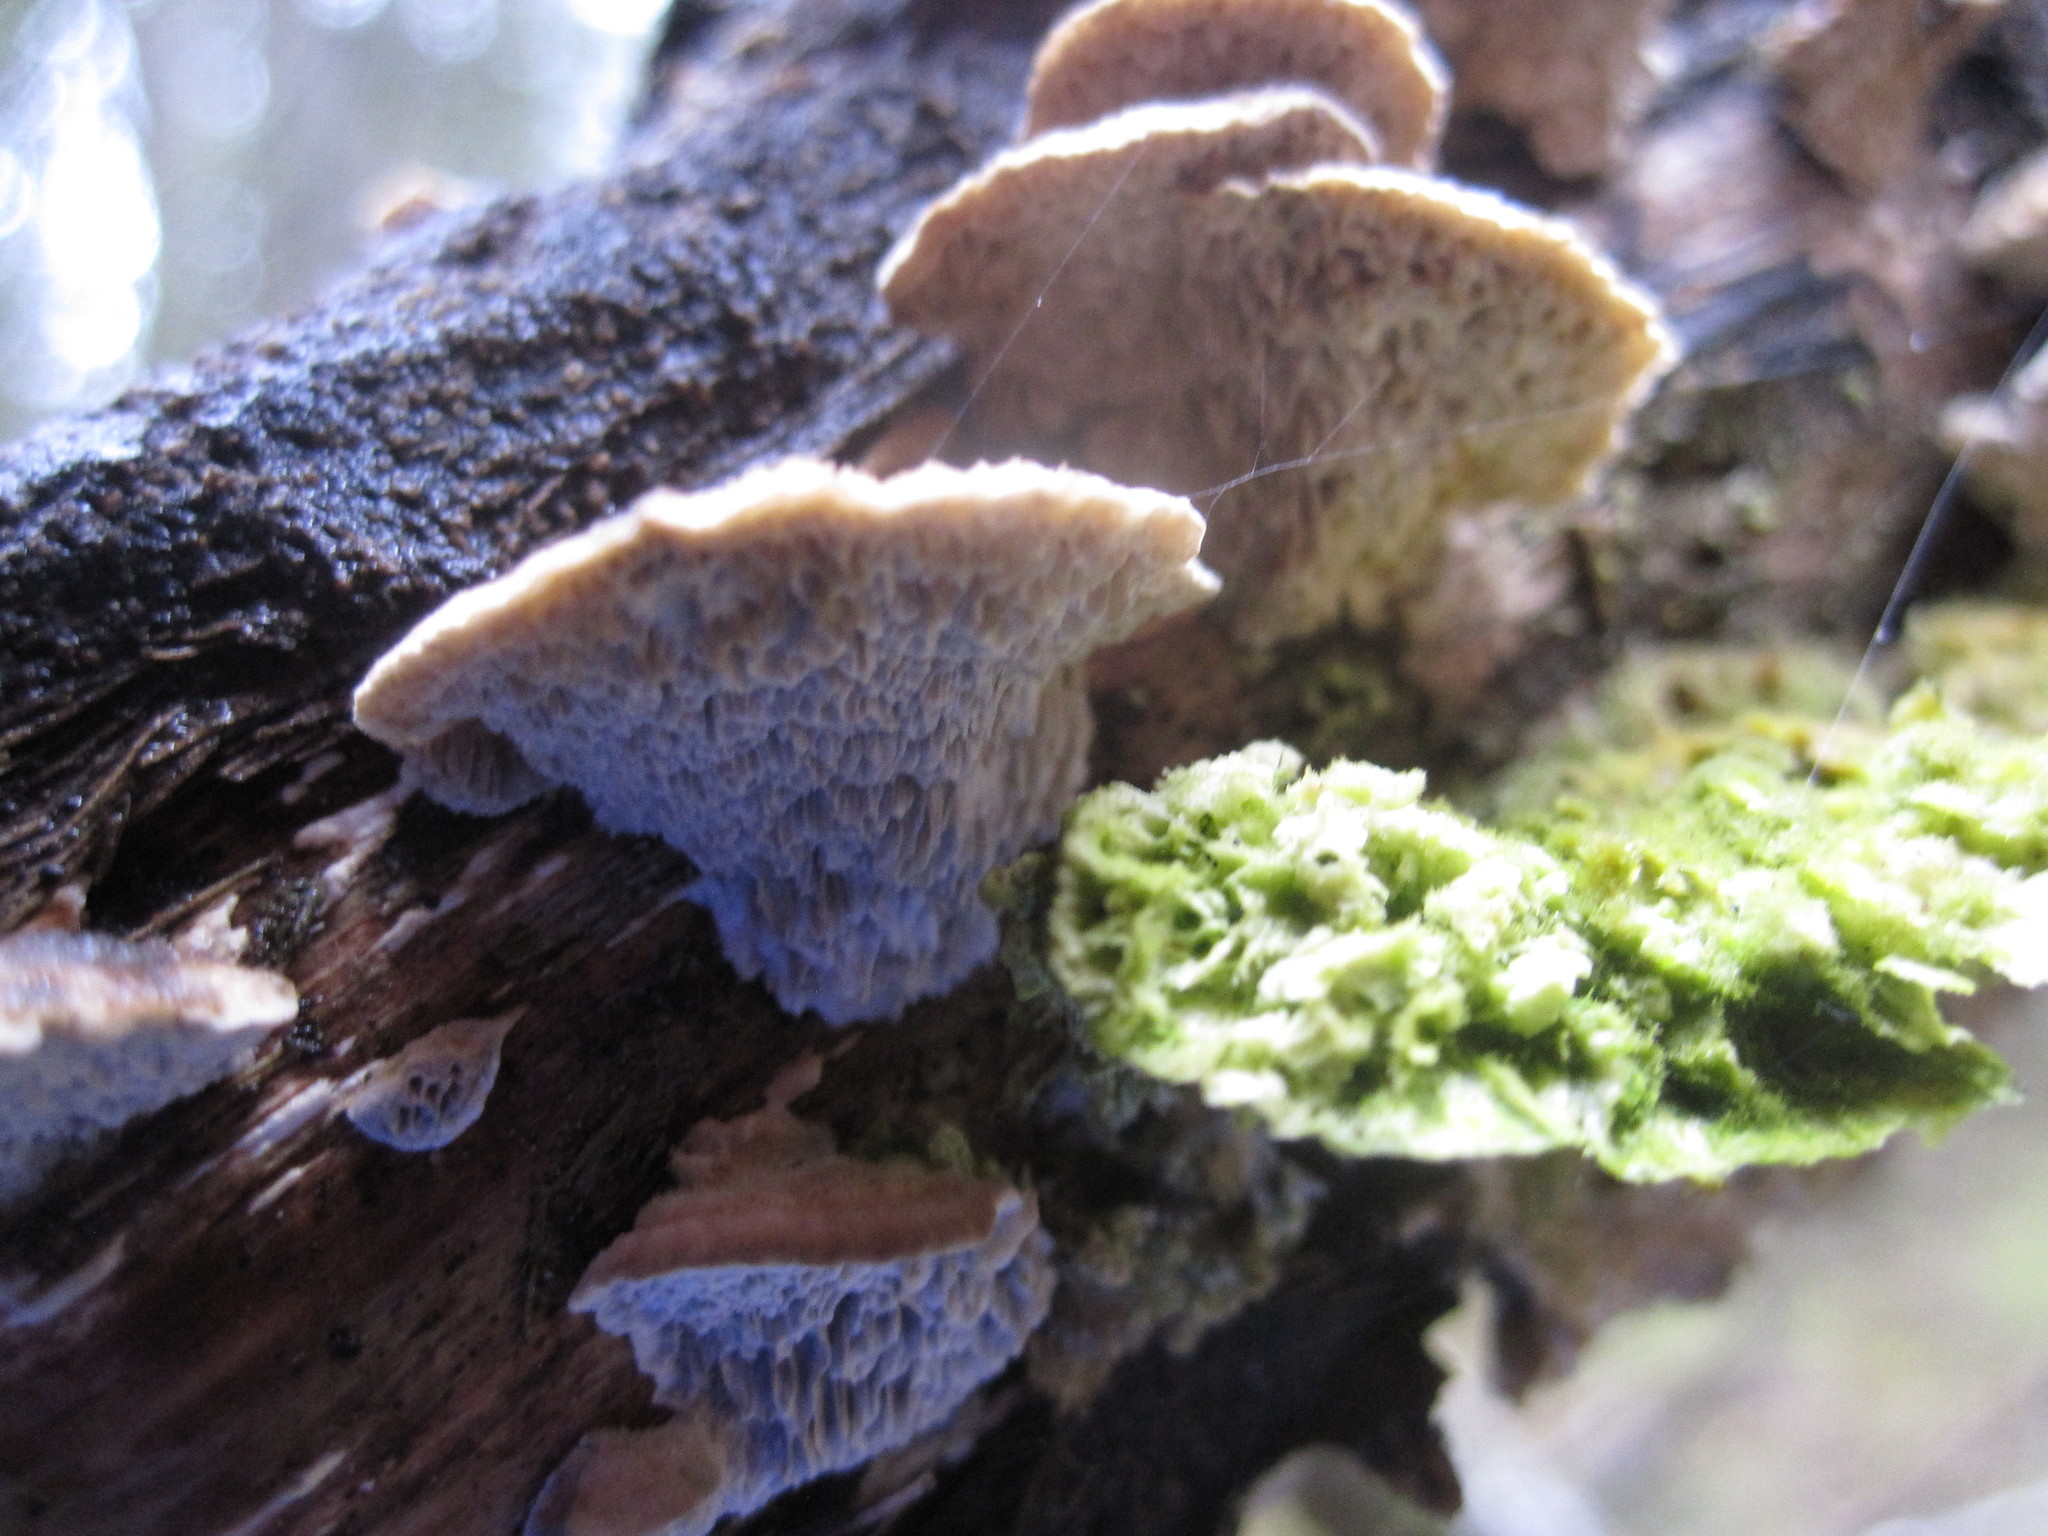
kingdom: Fungi
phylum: Basidiomycota
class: Agaricomycetes
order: Polyporales
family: Fomitopsidaceae
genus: Fomitopsis
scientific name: Fomitopsis
